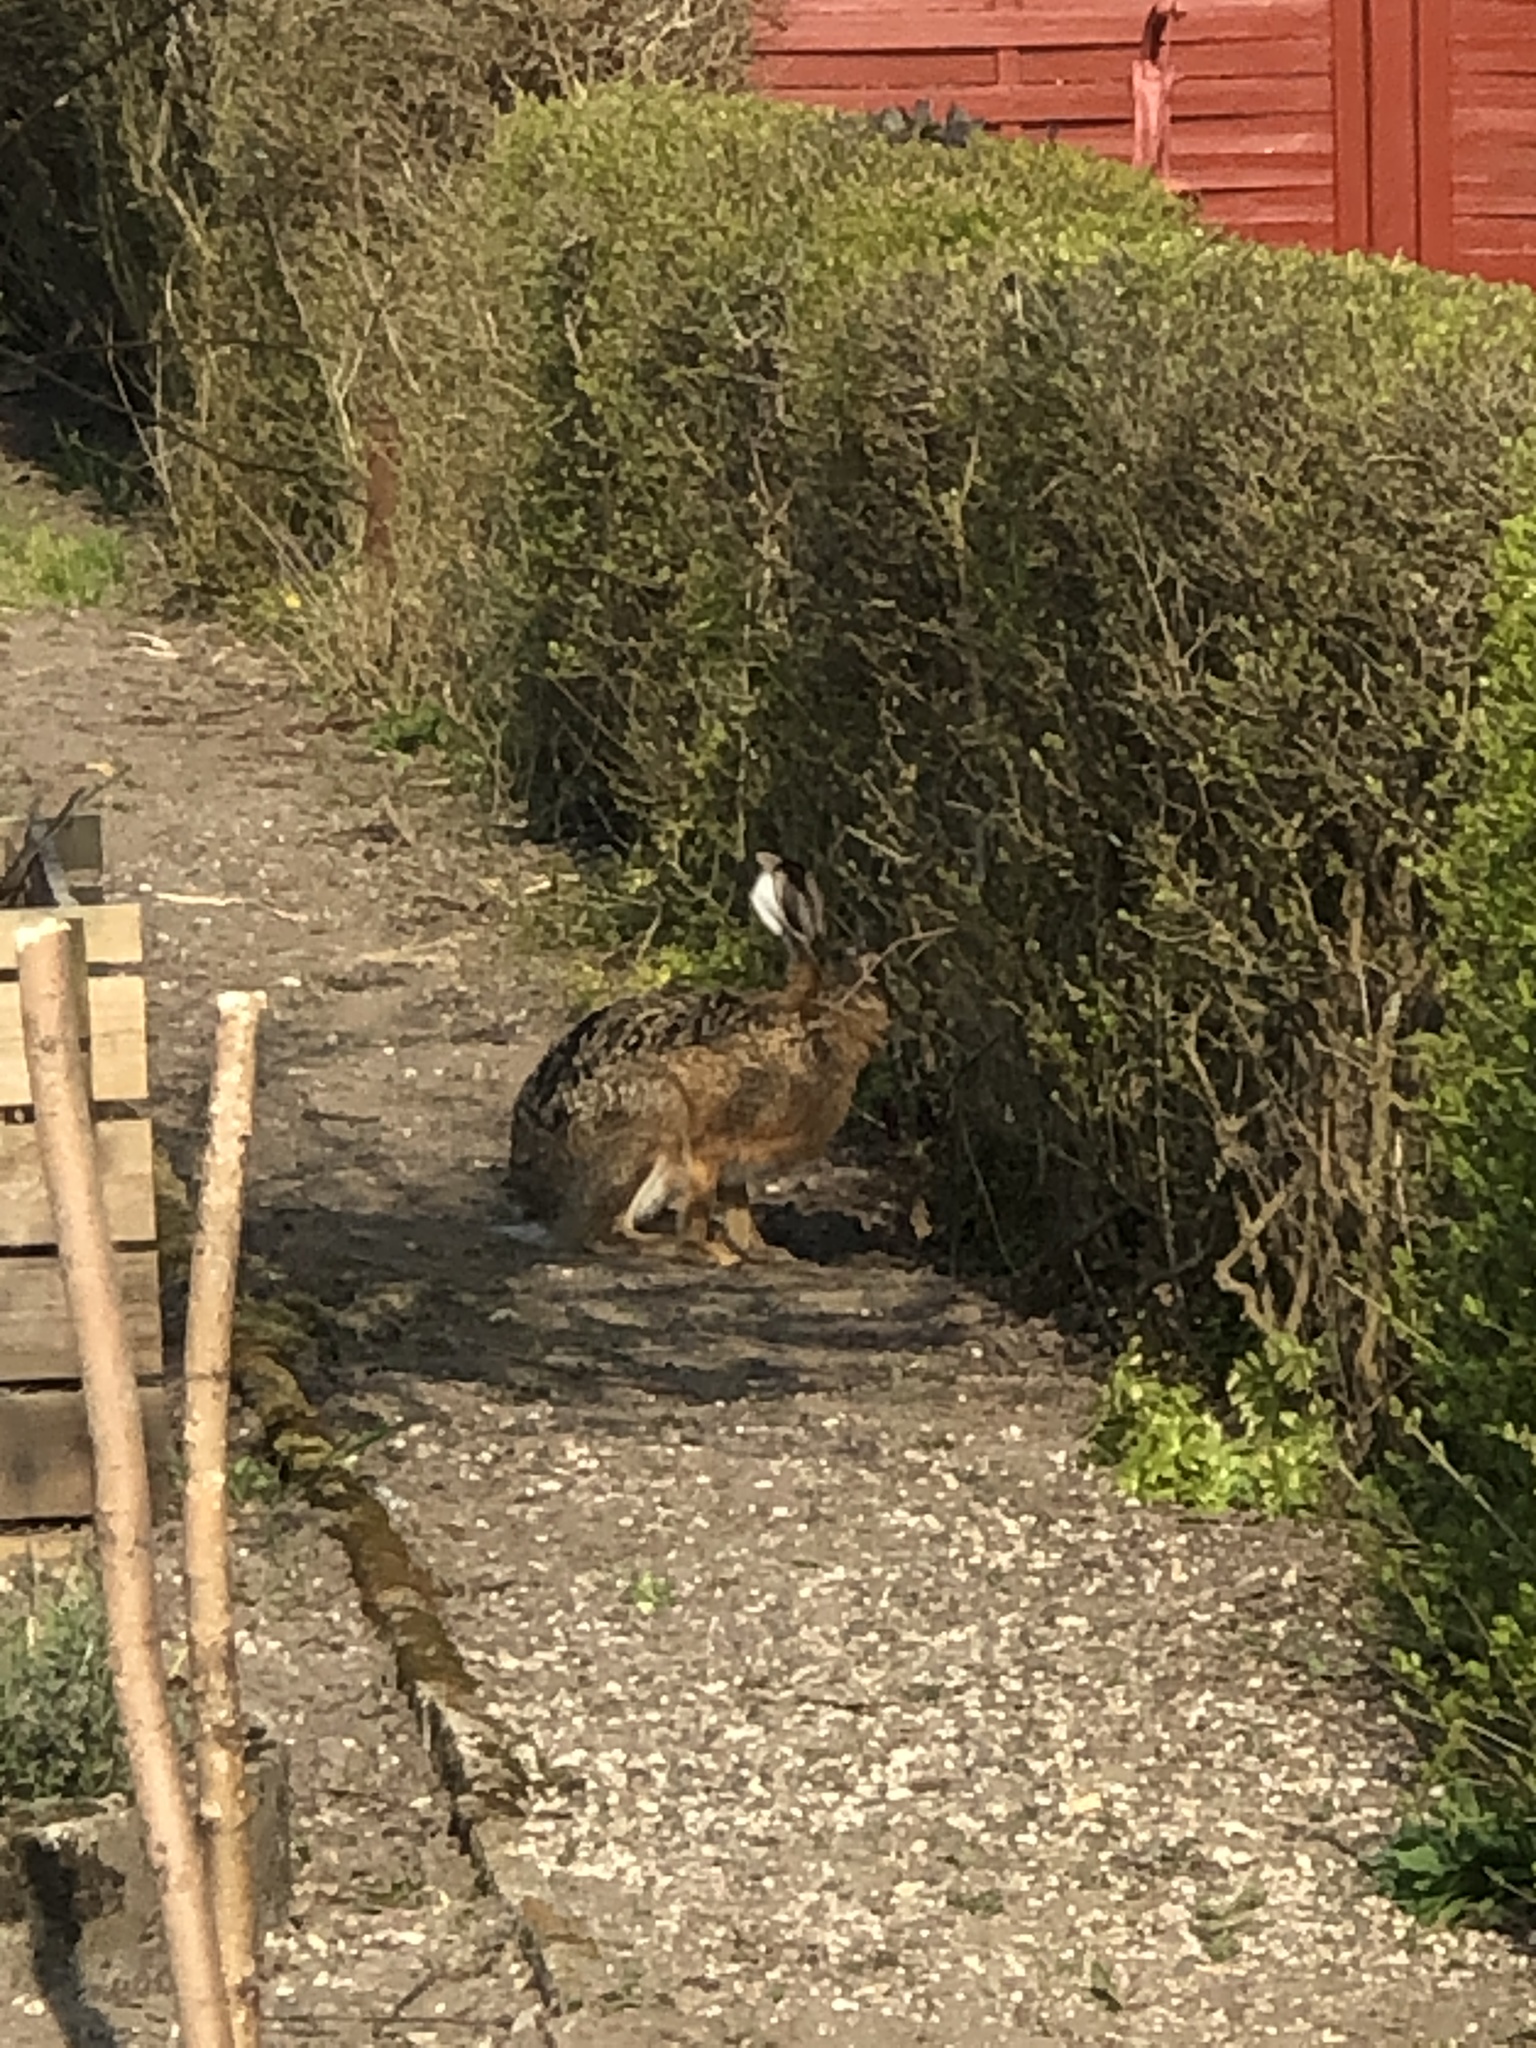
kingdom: Animalia
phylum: Chordata
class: Mammalia
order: Lagomorpha
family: Leporidae
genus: Lepus
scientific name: Lepus europaeus
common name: European hare
